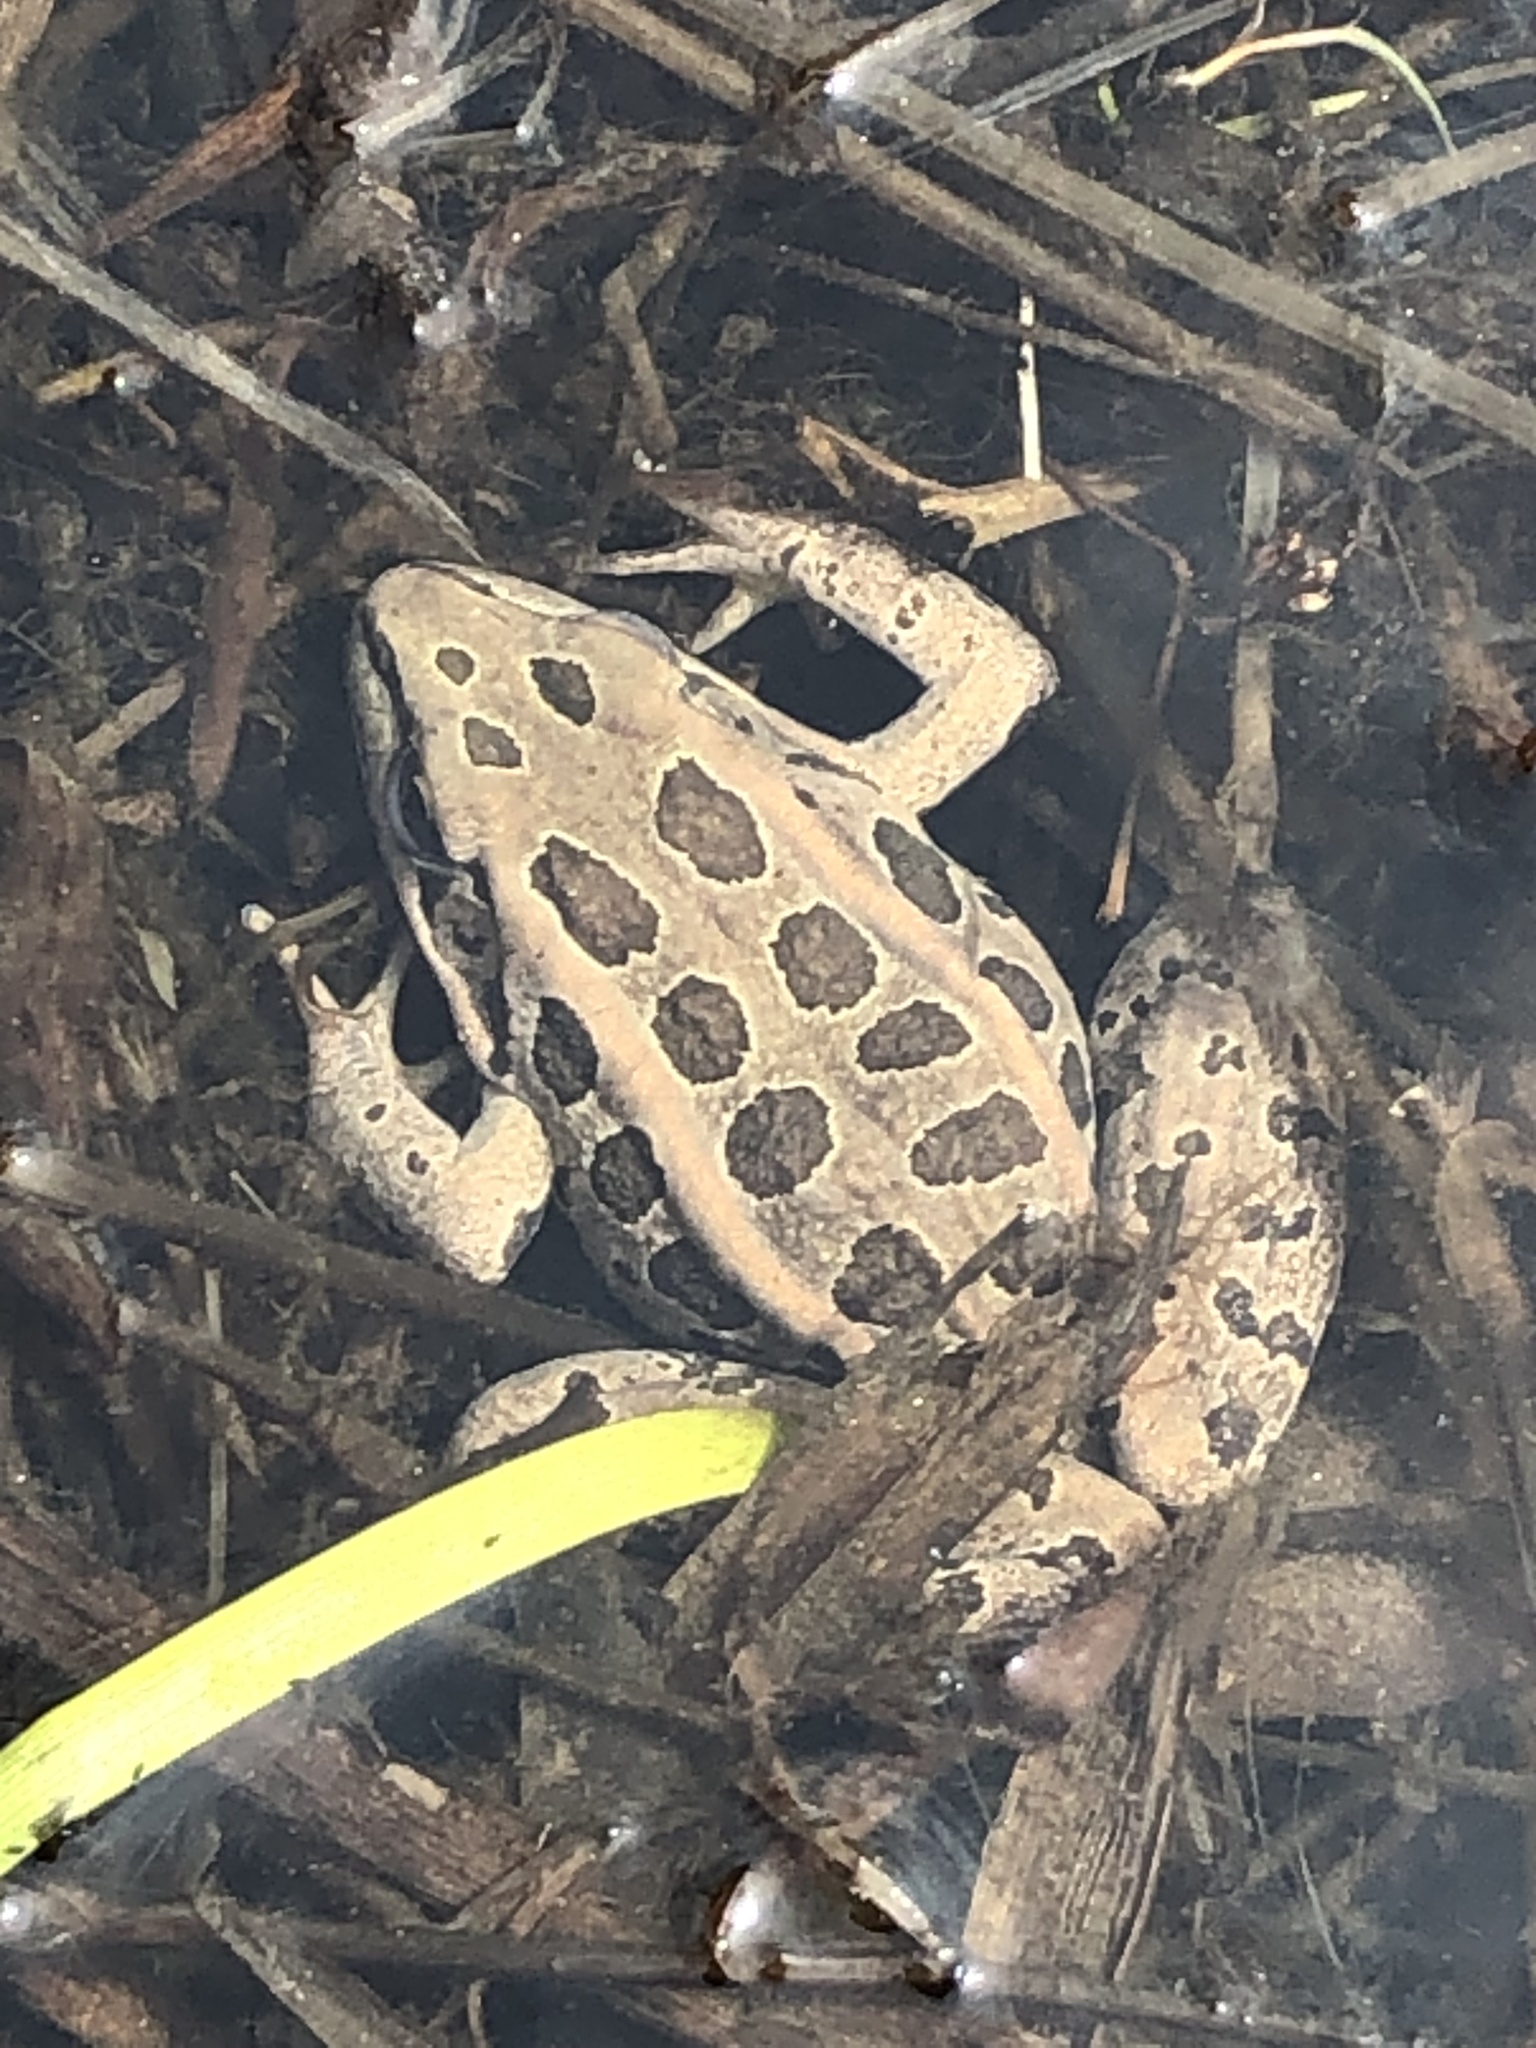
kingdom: Animalia
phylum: Chordata
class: Amphibia
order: Anura
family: Ranidae
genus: Lithobates
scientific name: Lithobates palustris
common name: Pickerel frog
